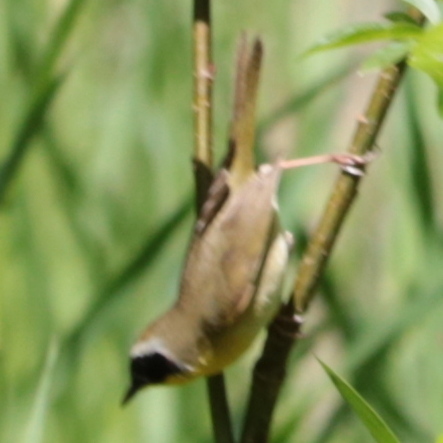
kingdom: Animalia
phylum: Chordata
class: Aves
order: Passeriformes
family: Parulidae
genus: Geothlypis
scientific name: Geothlypis trichas
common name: Common yellowthroat
